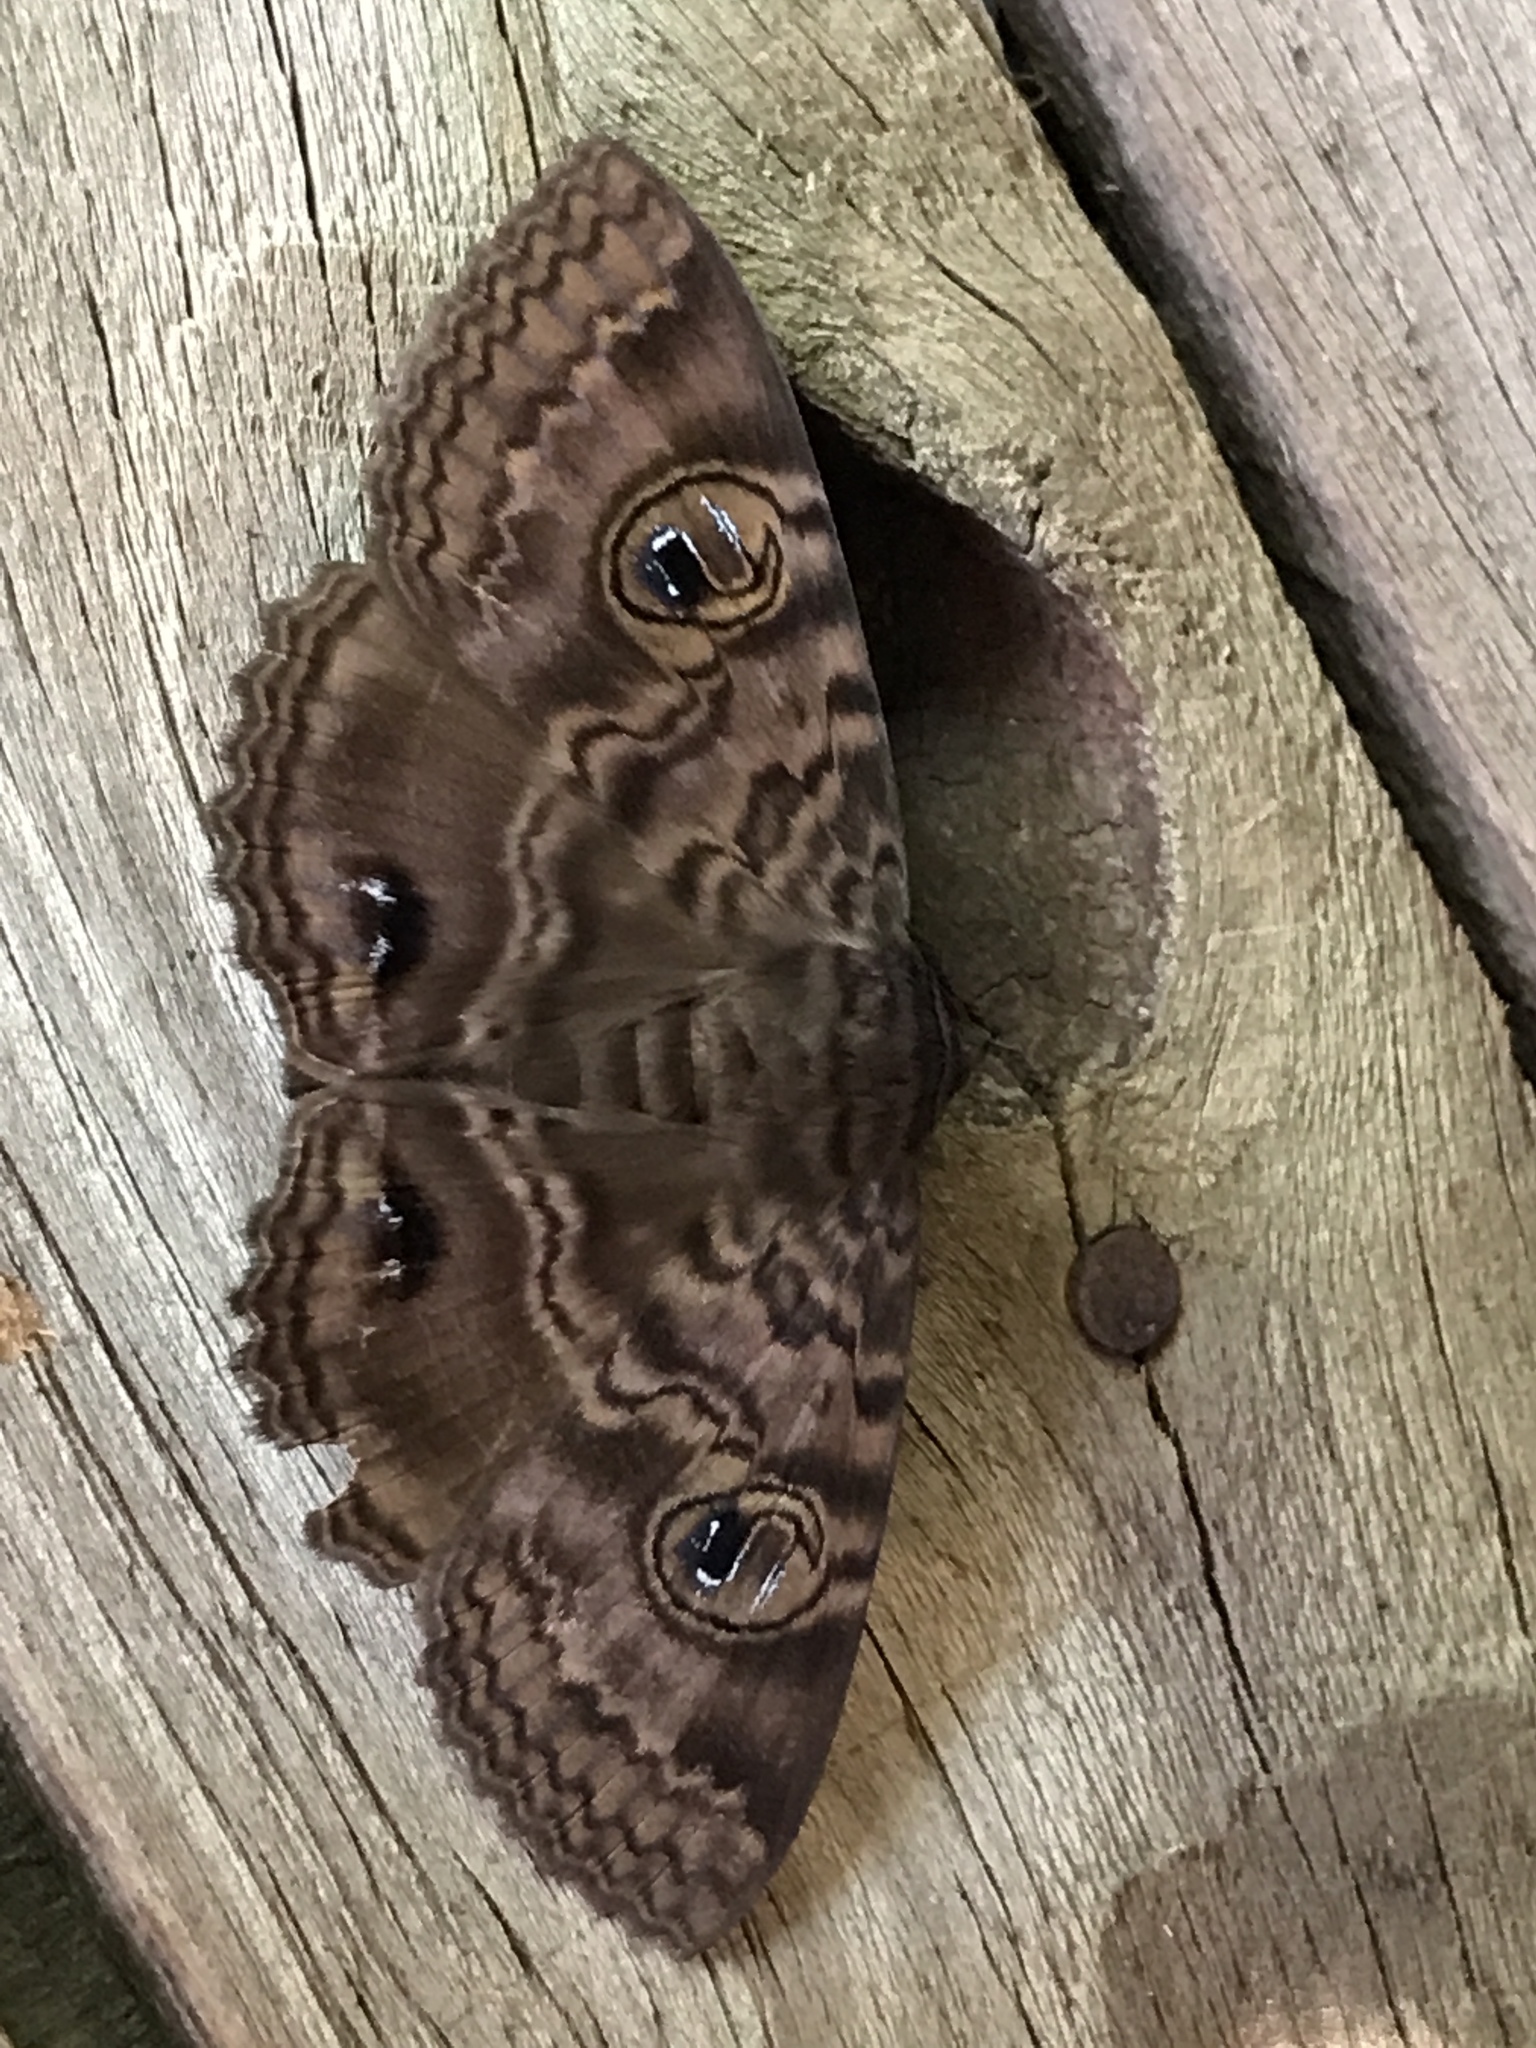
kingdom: Animalia
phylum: Arthropoda
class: Insecta
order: Lepidoptera
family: Erebidae
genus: Speiredonia
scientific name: Speiredonia spectans
